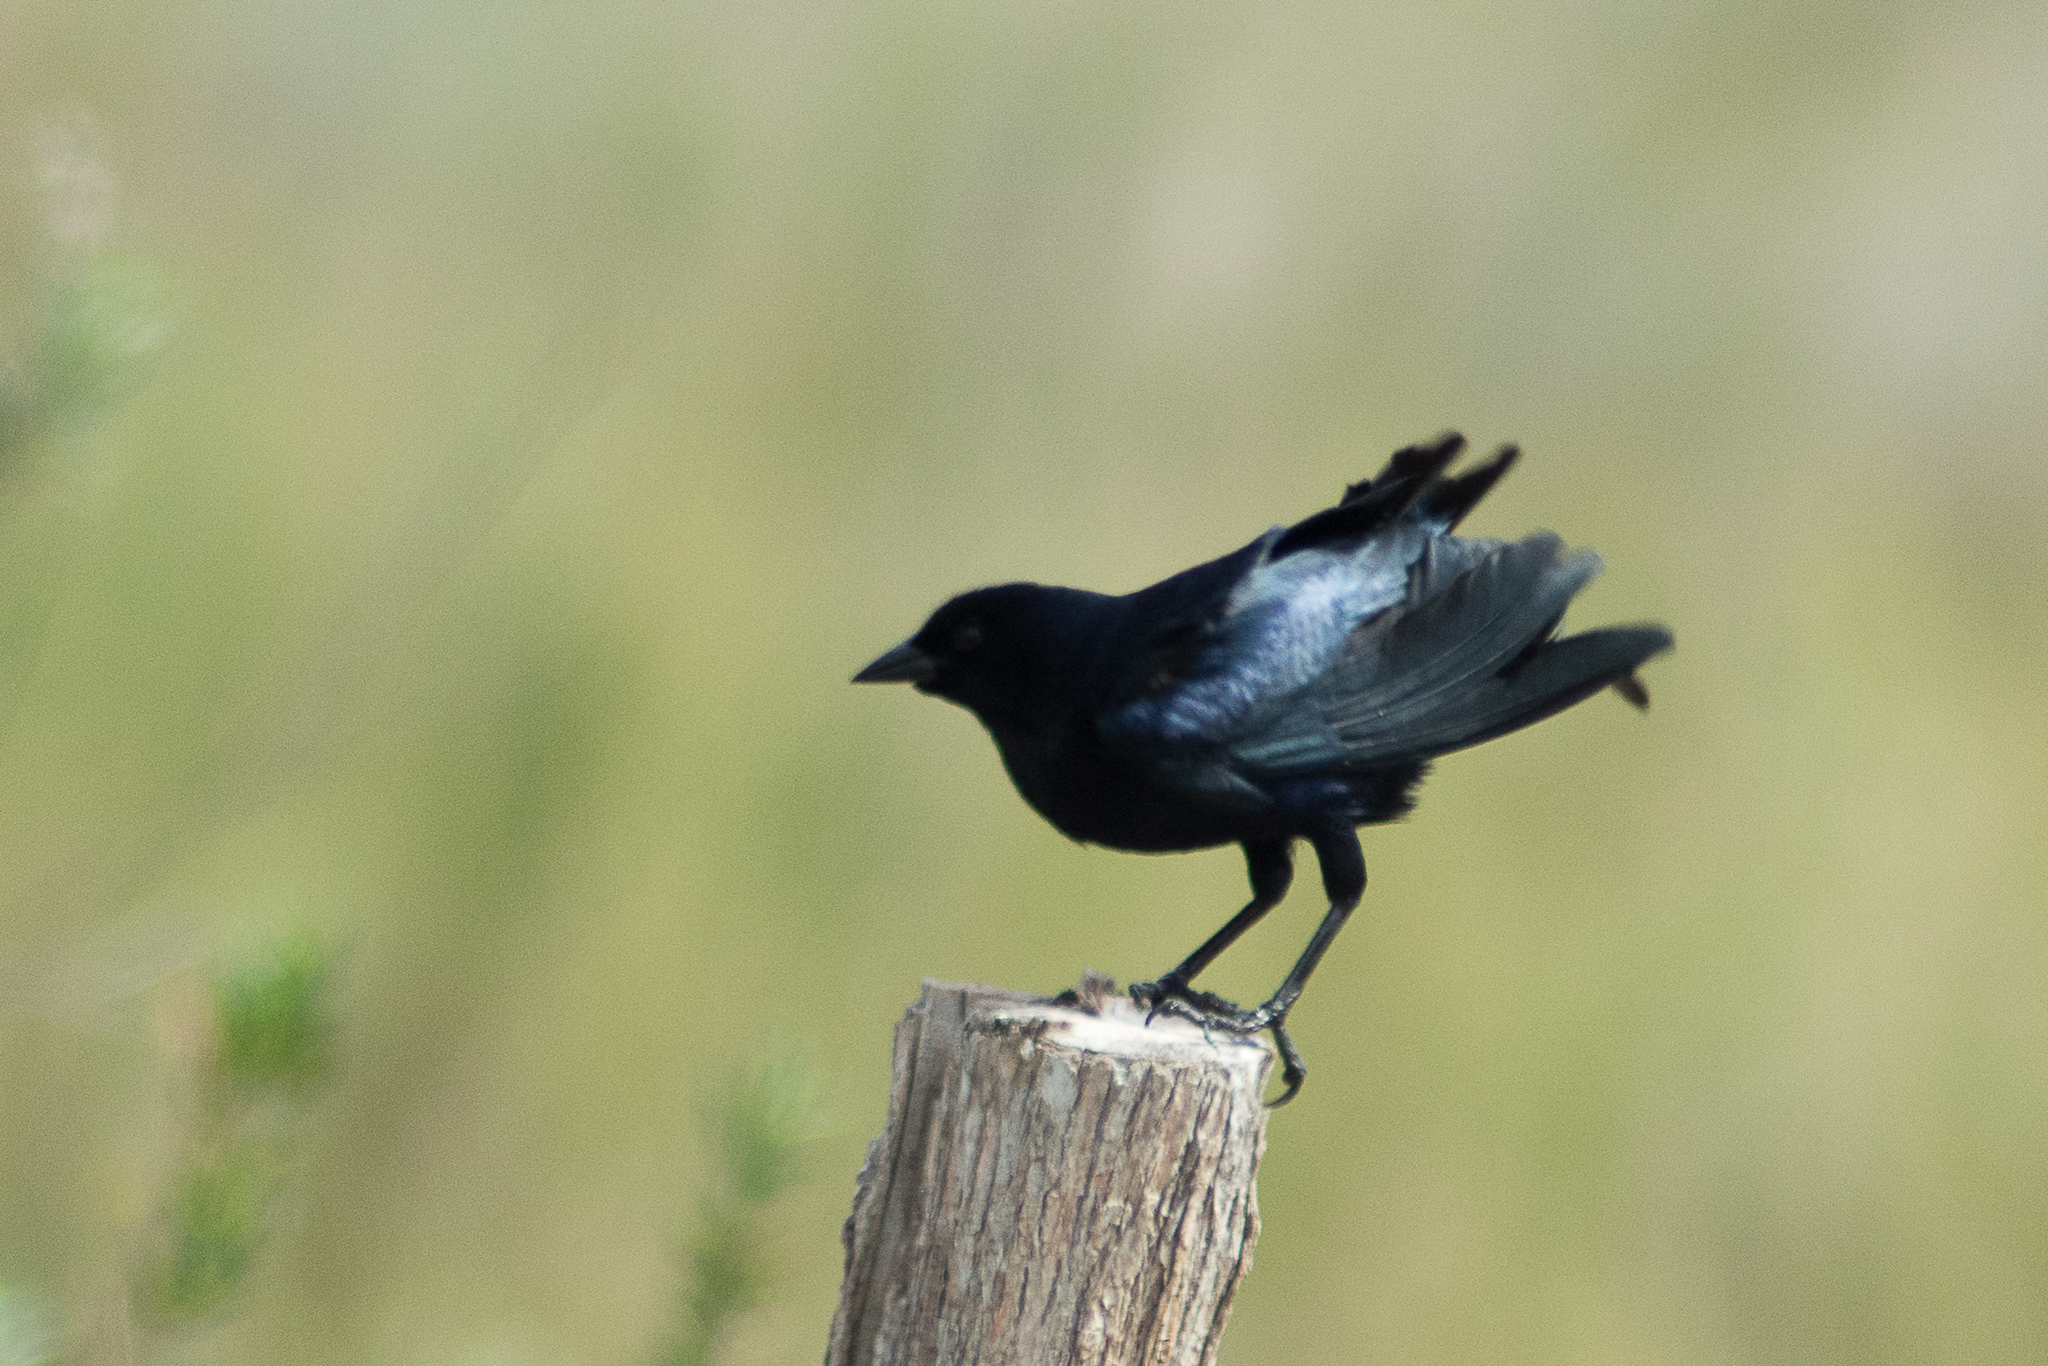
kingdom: Animalia
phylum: Chordata
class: Aves
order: Passeriformes
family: Icteridae
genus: Molothrus
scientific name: Molothrus bonariensis
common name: Shiny cowbird
